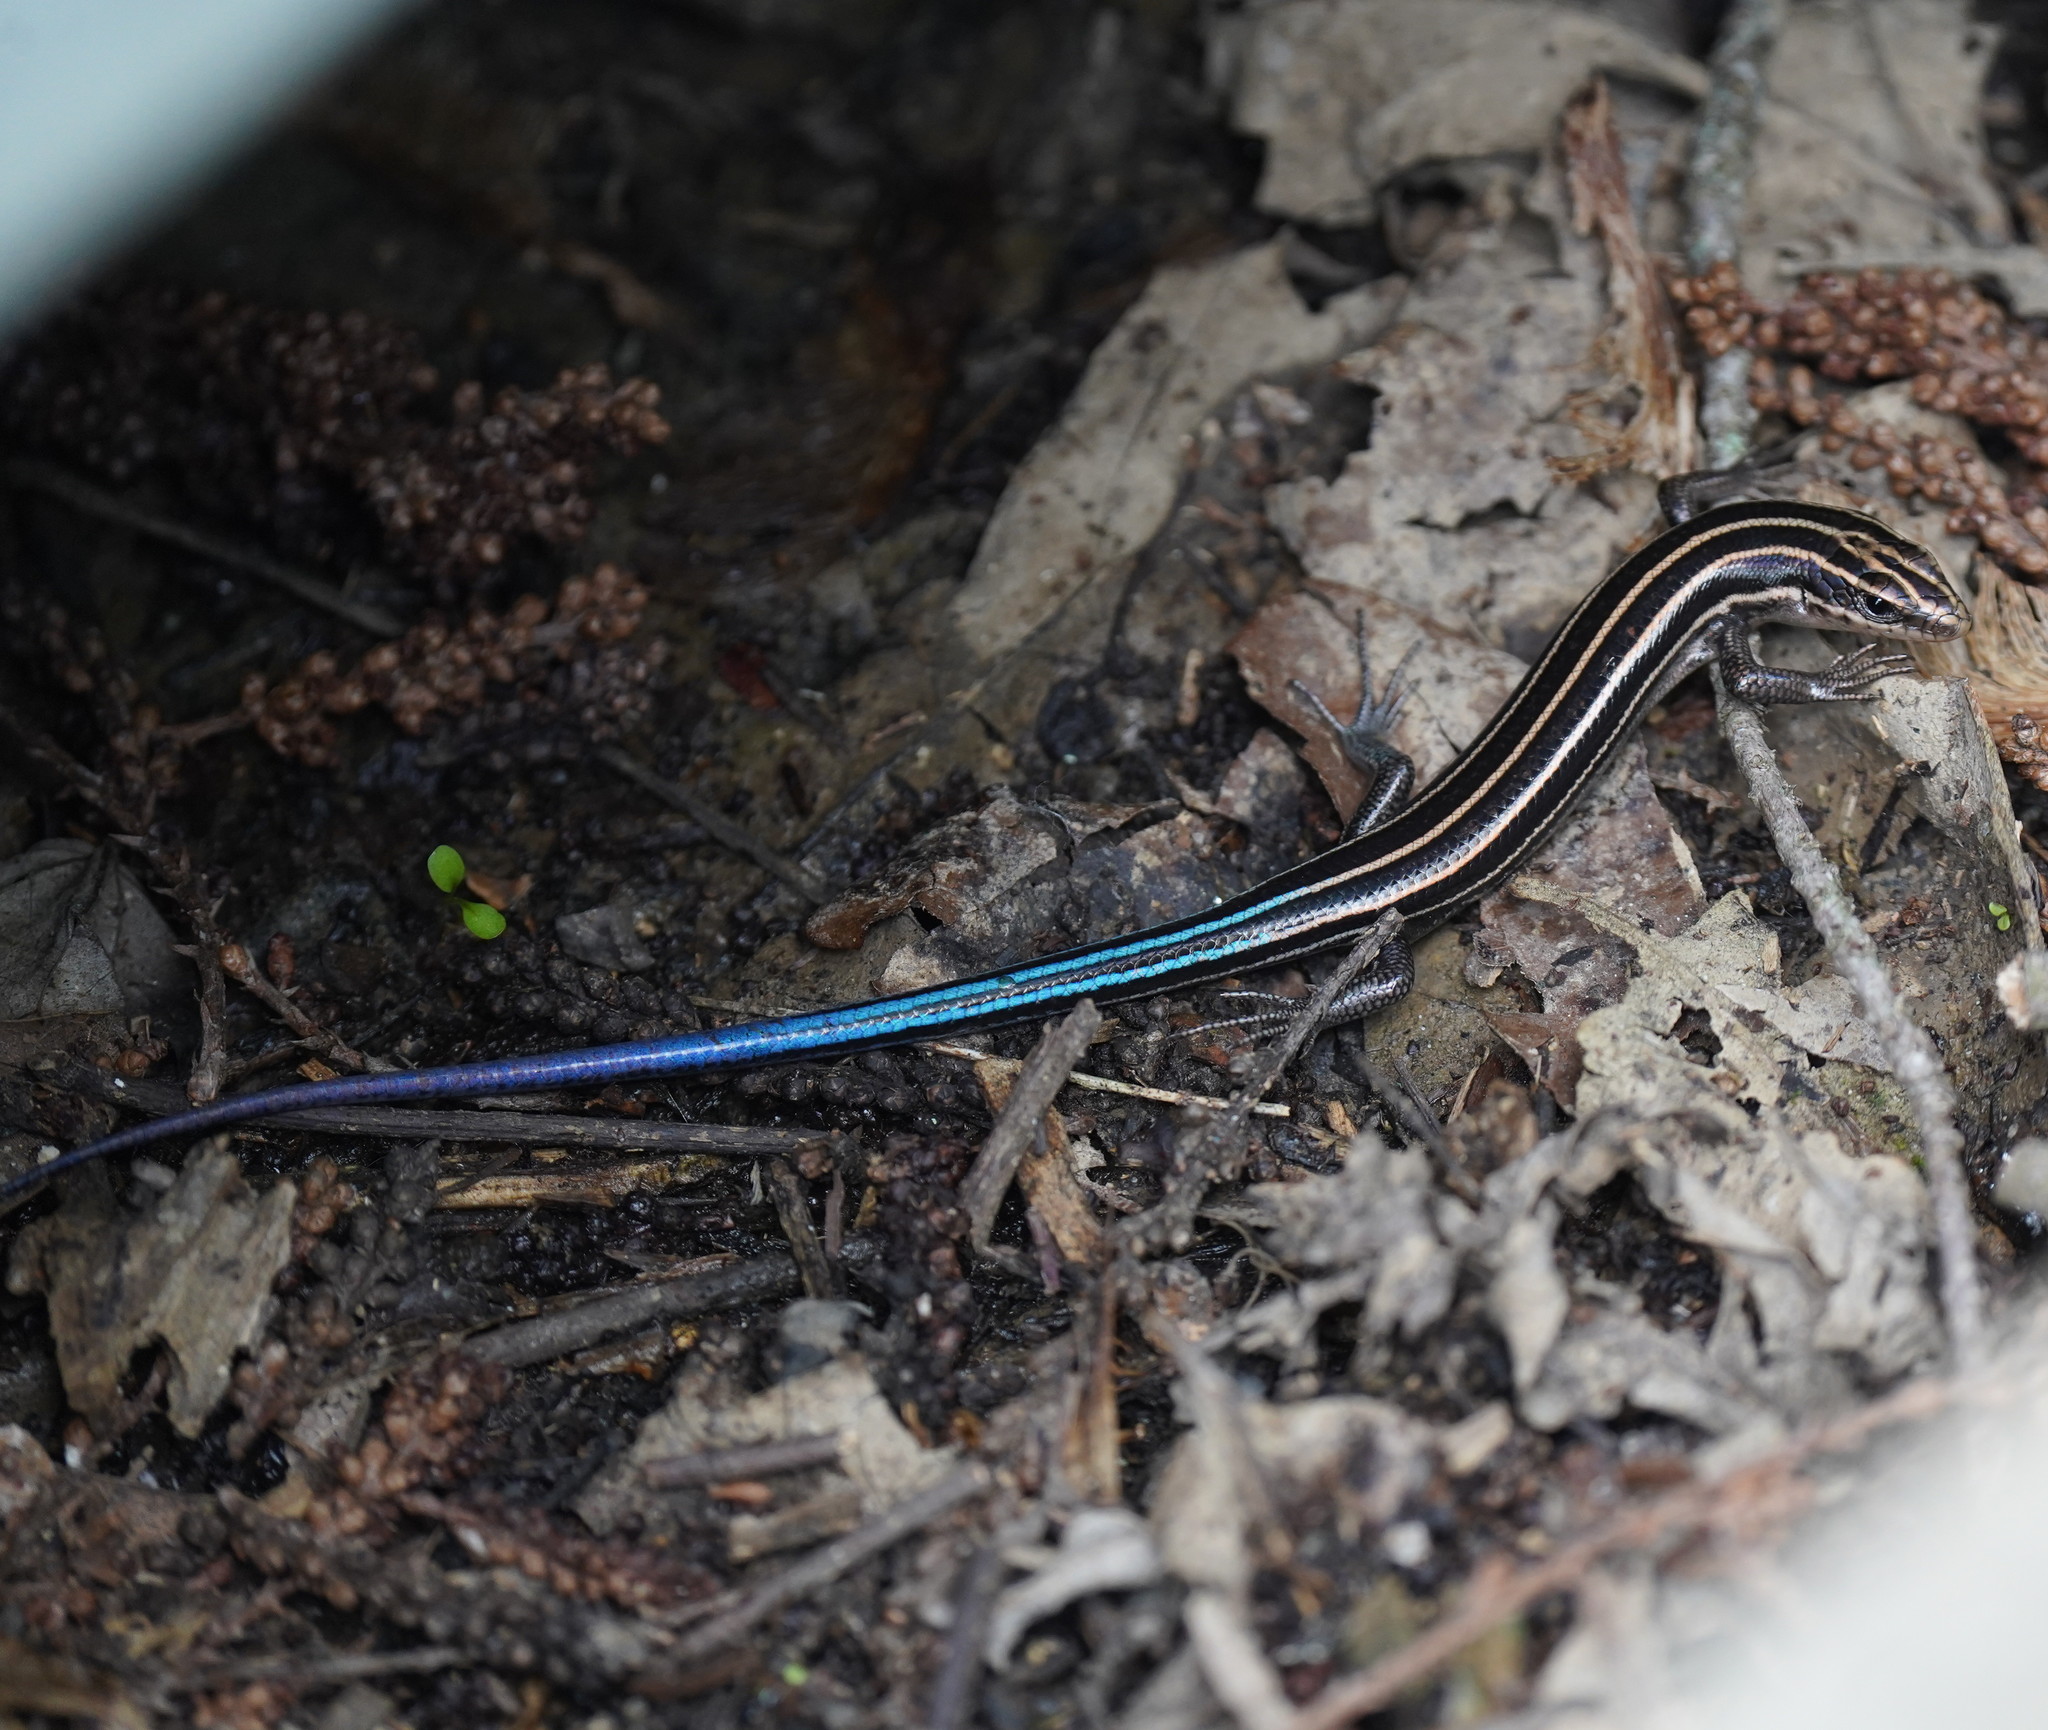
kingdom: Animalia
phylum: Chordata
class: Squamata
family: Scincidae
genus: Plestiodon
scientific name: Plestiodon fasciatus
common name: Five-lined skink
